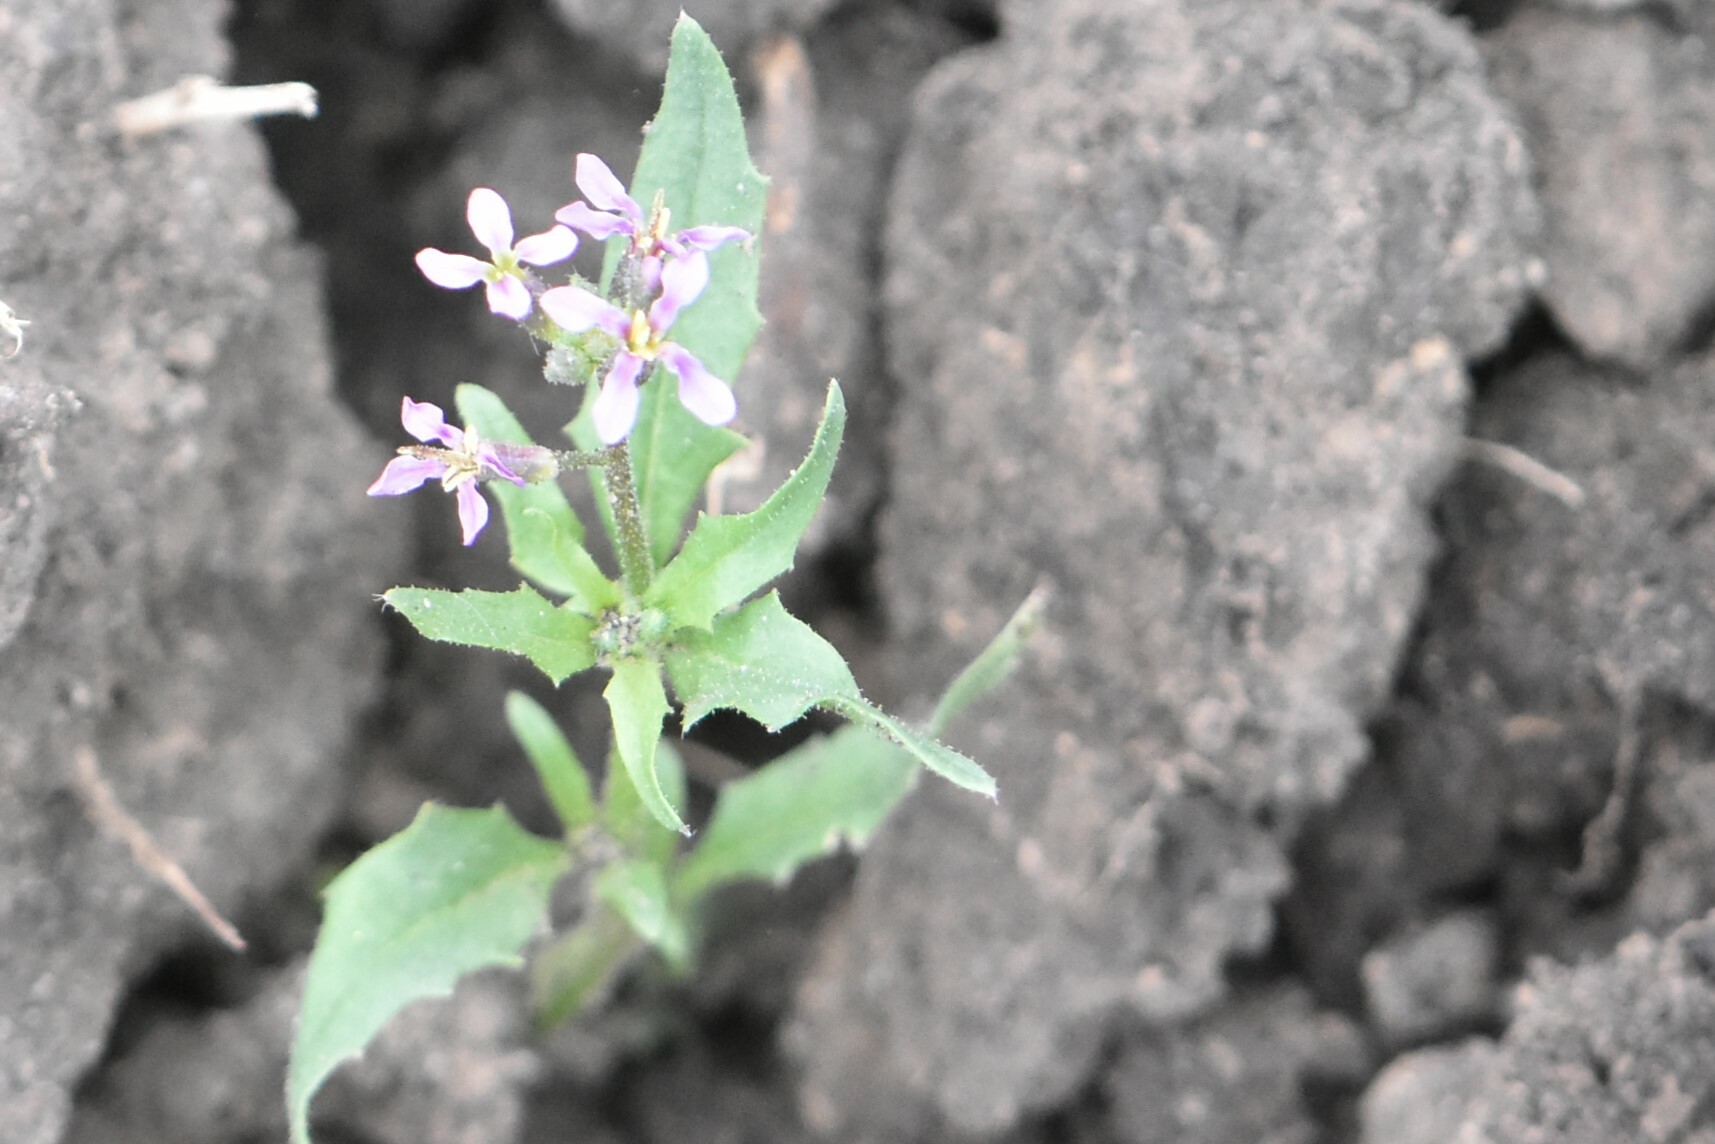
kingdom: Plantae
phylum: Tracheophyta
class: Magnoliopsida
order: Brassicales
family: Brassicaceae
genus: Chorispora
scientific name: Chorispora tenella
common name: Crossflower
